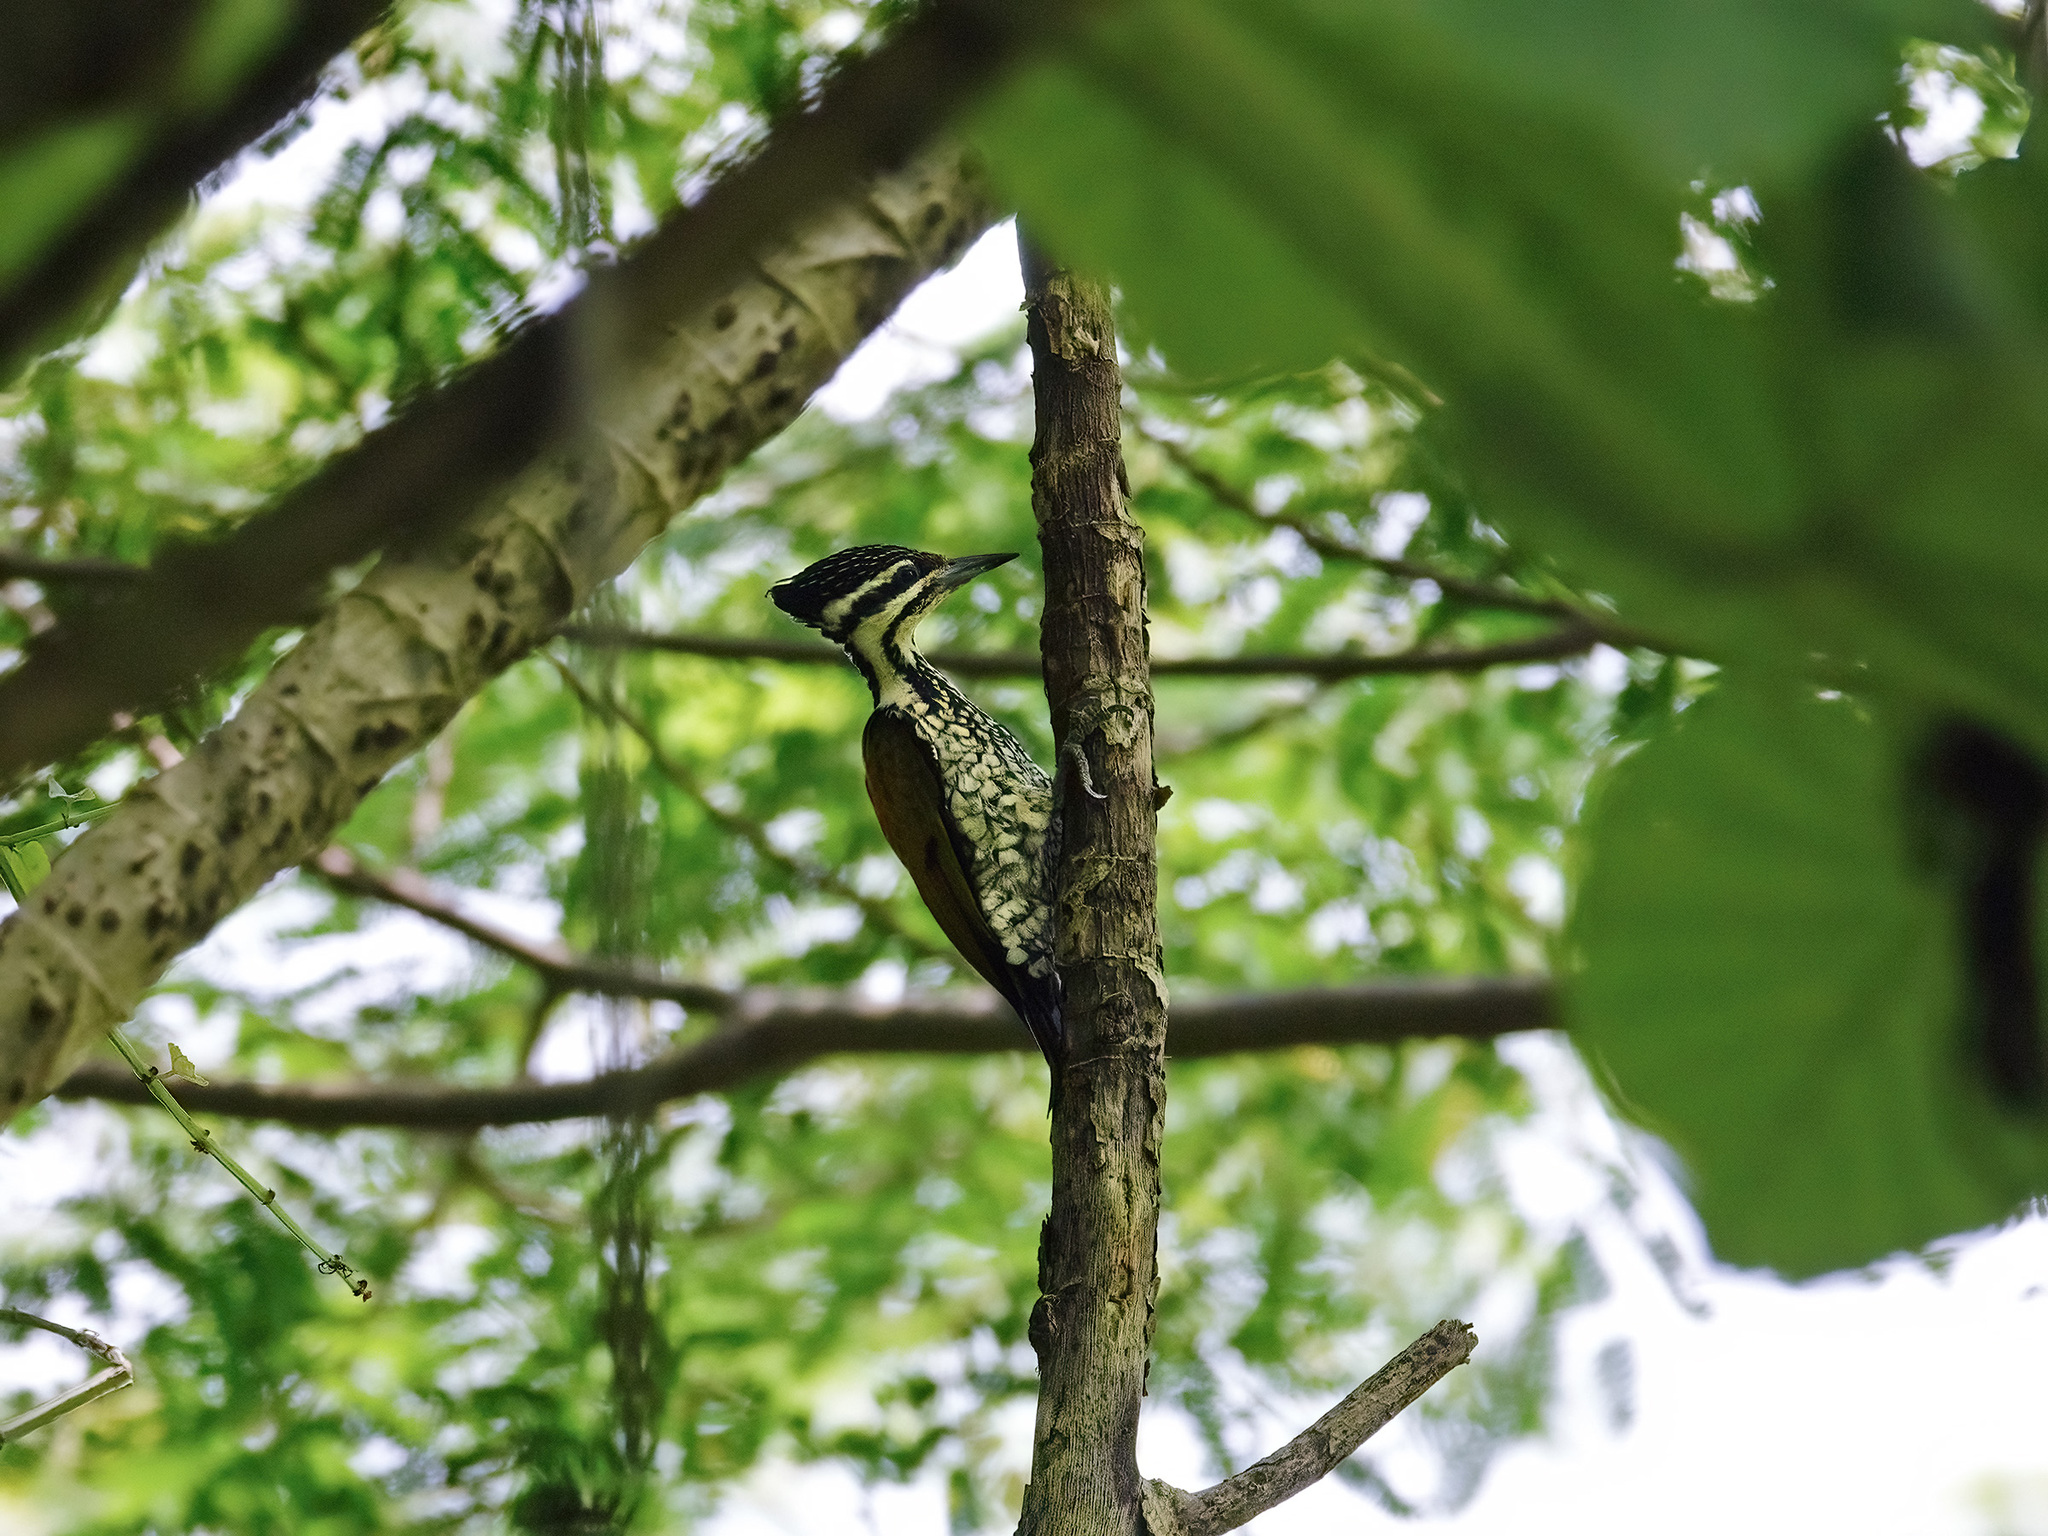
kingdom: Animalia
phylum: Chordata
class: Aves
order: Piciformes
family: Picidae
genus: Dinopium
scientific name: Dinopium javanense
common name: Common flameback
